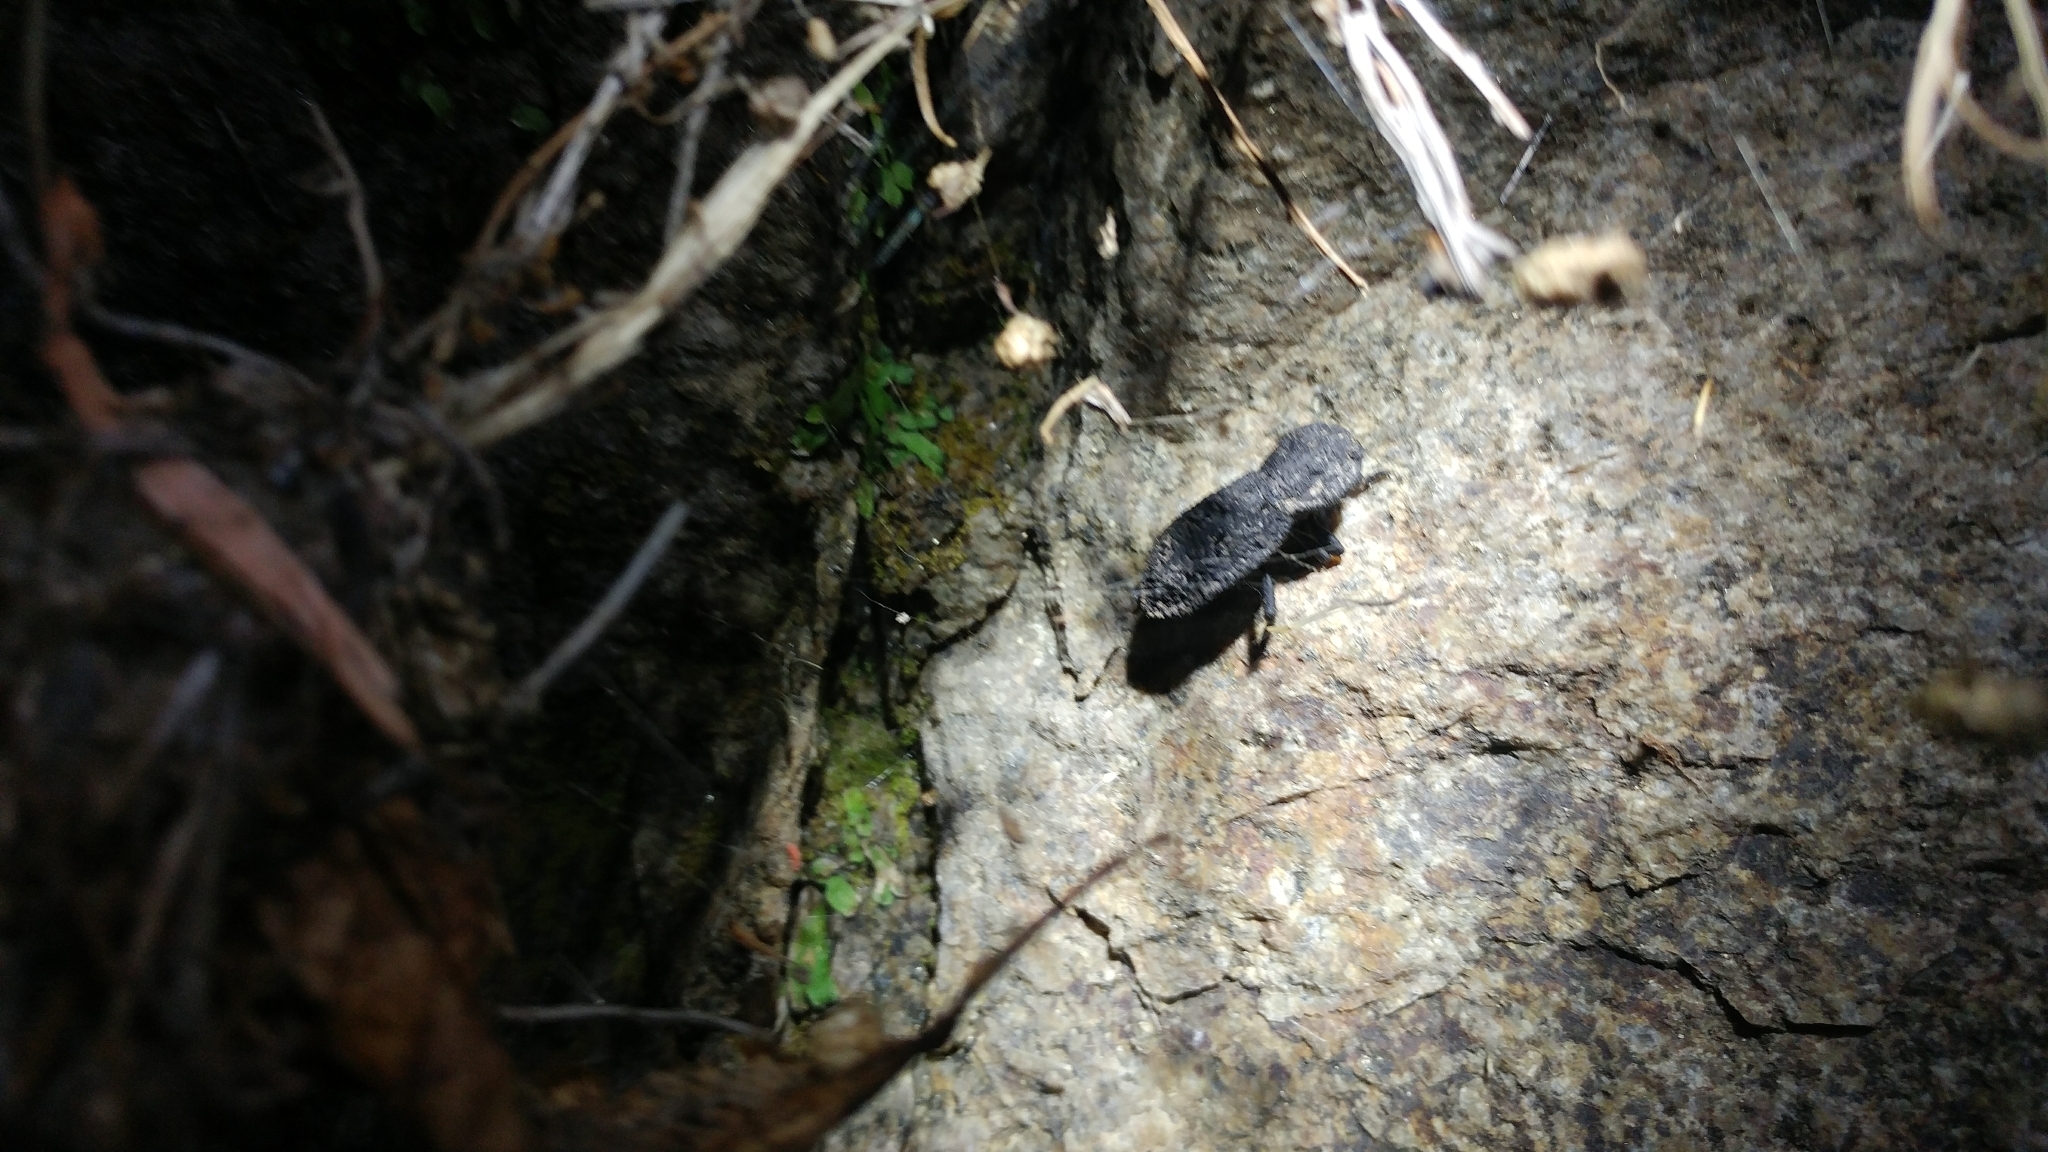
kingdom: Animalia
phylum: Arthropoda
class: Insecta
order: Coleoptera
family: Zopheridae
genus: Phloeodes
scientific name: Phloeodes diabolicus
